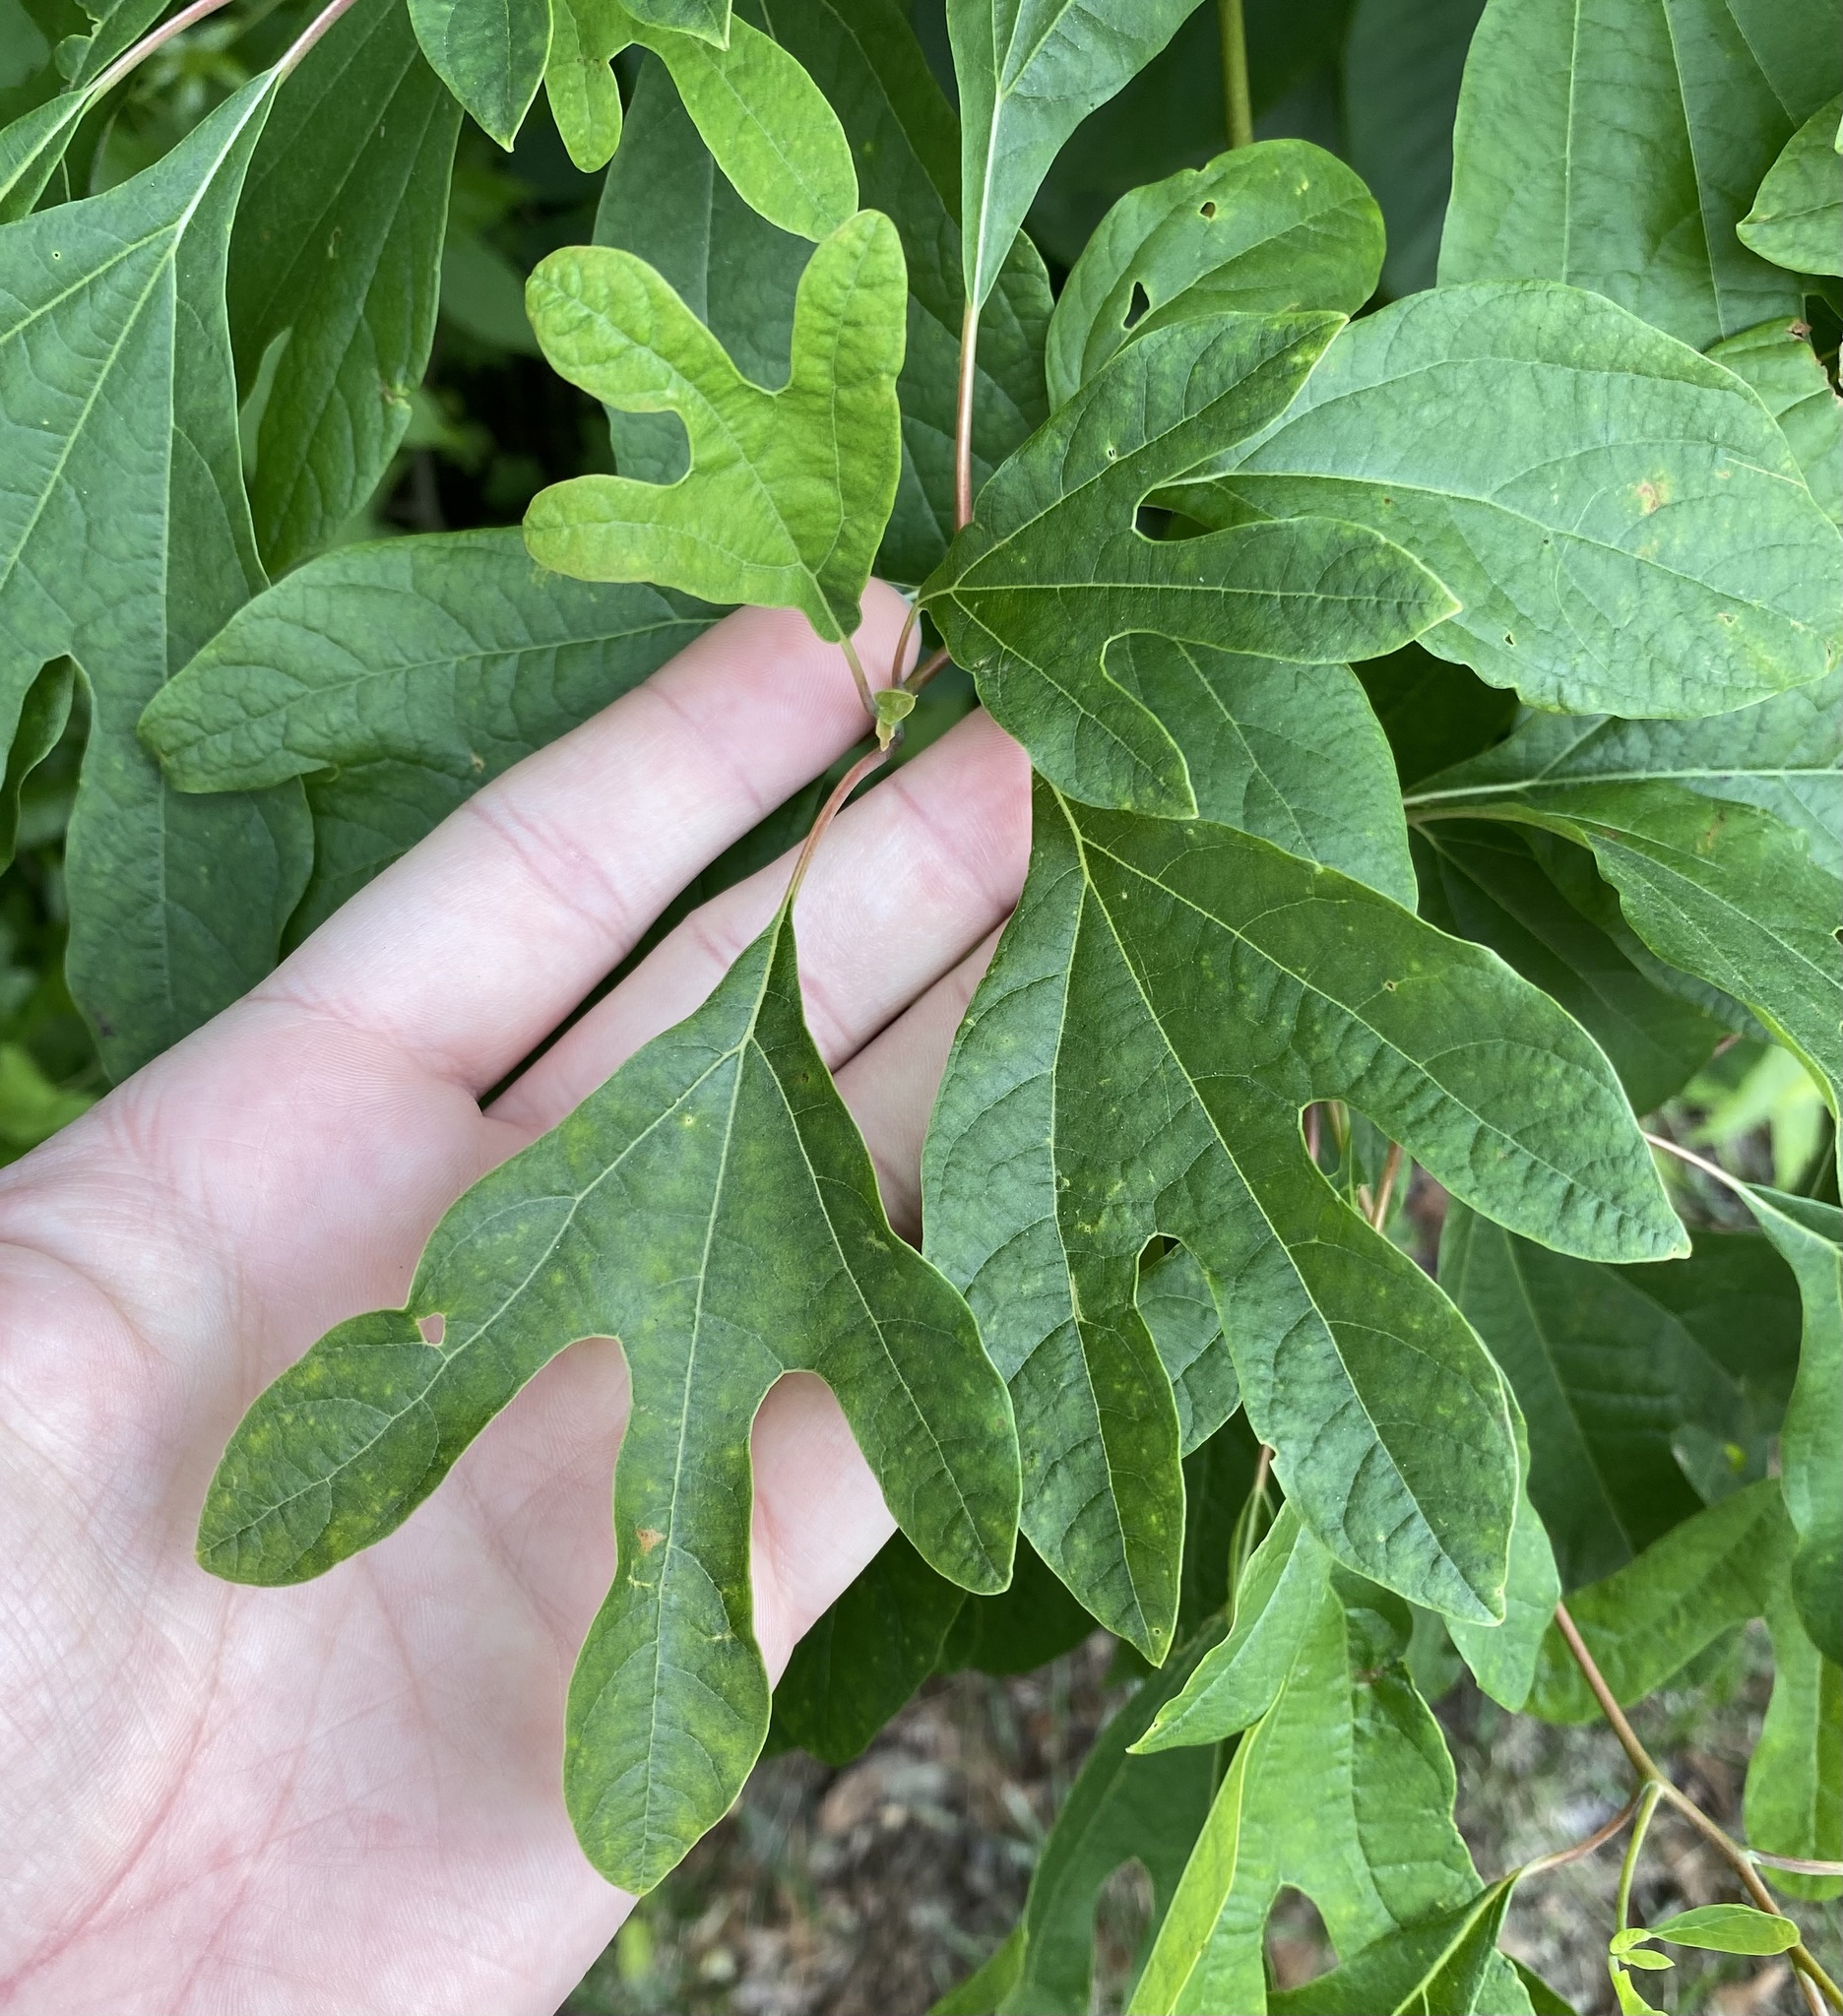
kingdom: Plantae
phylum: Tracheophyta
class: Magnoliopsida
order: Laurales
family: Lauraceae
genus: Sassafras
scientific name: Sassafras albidum
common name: Sassafras
